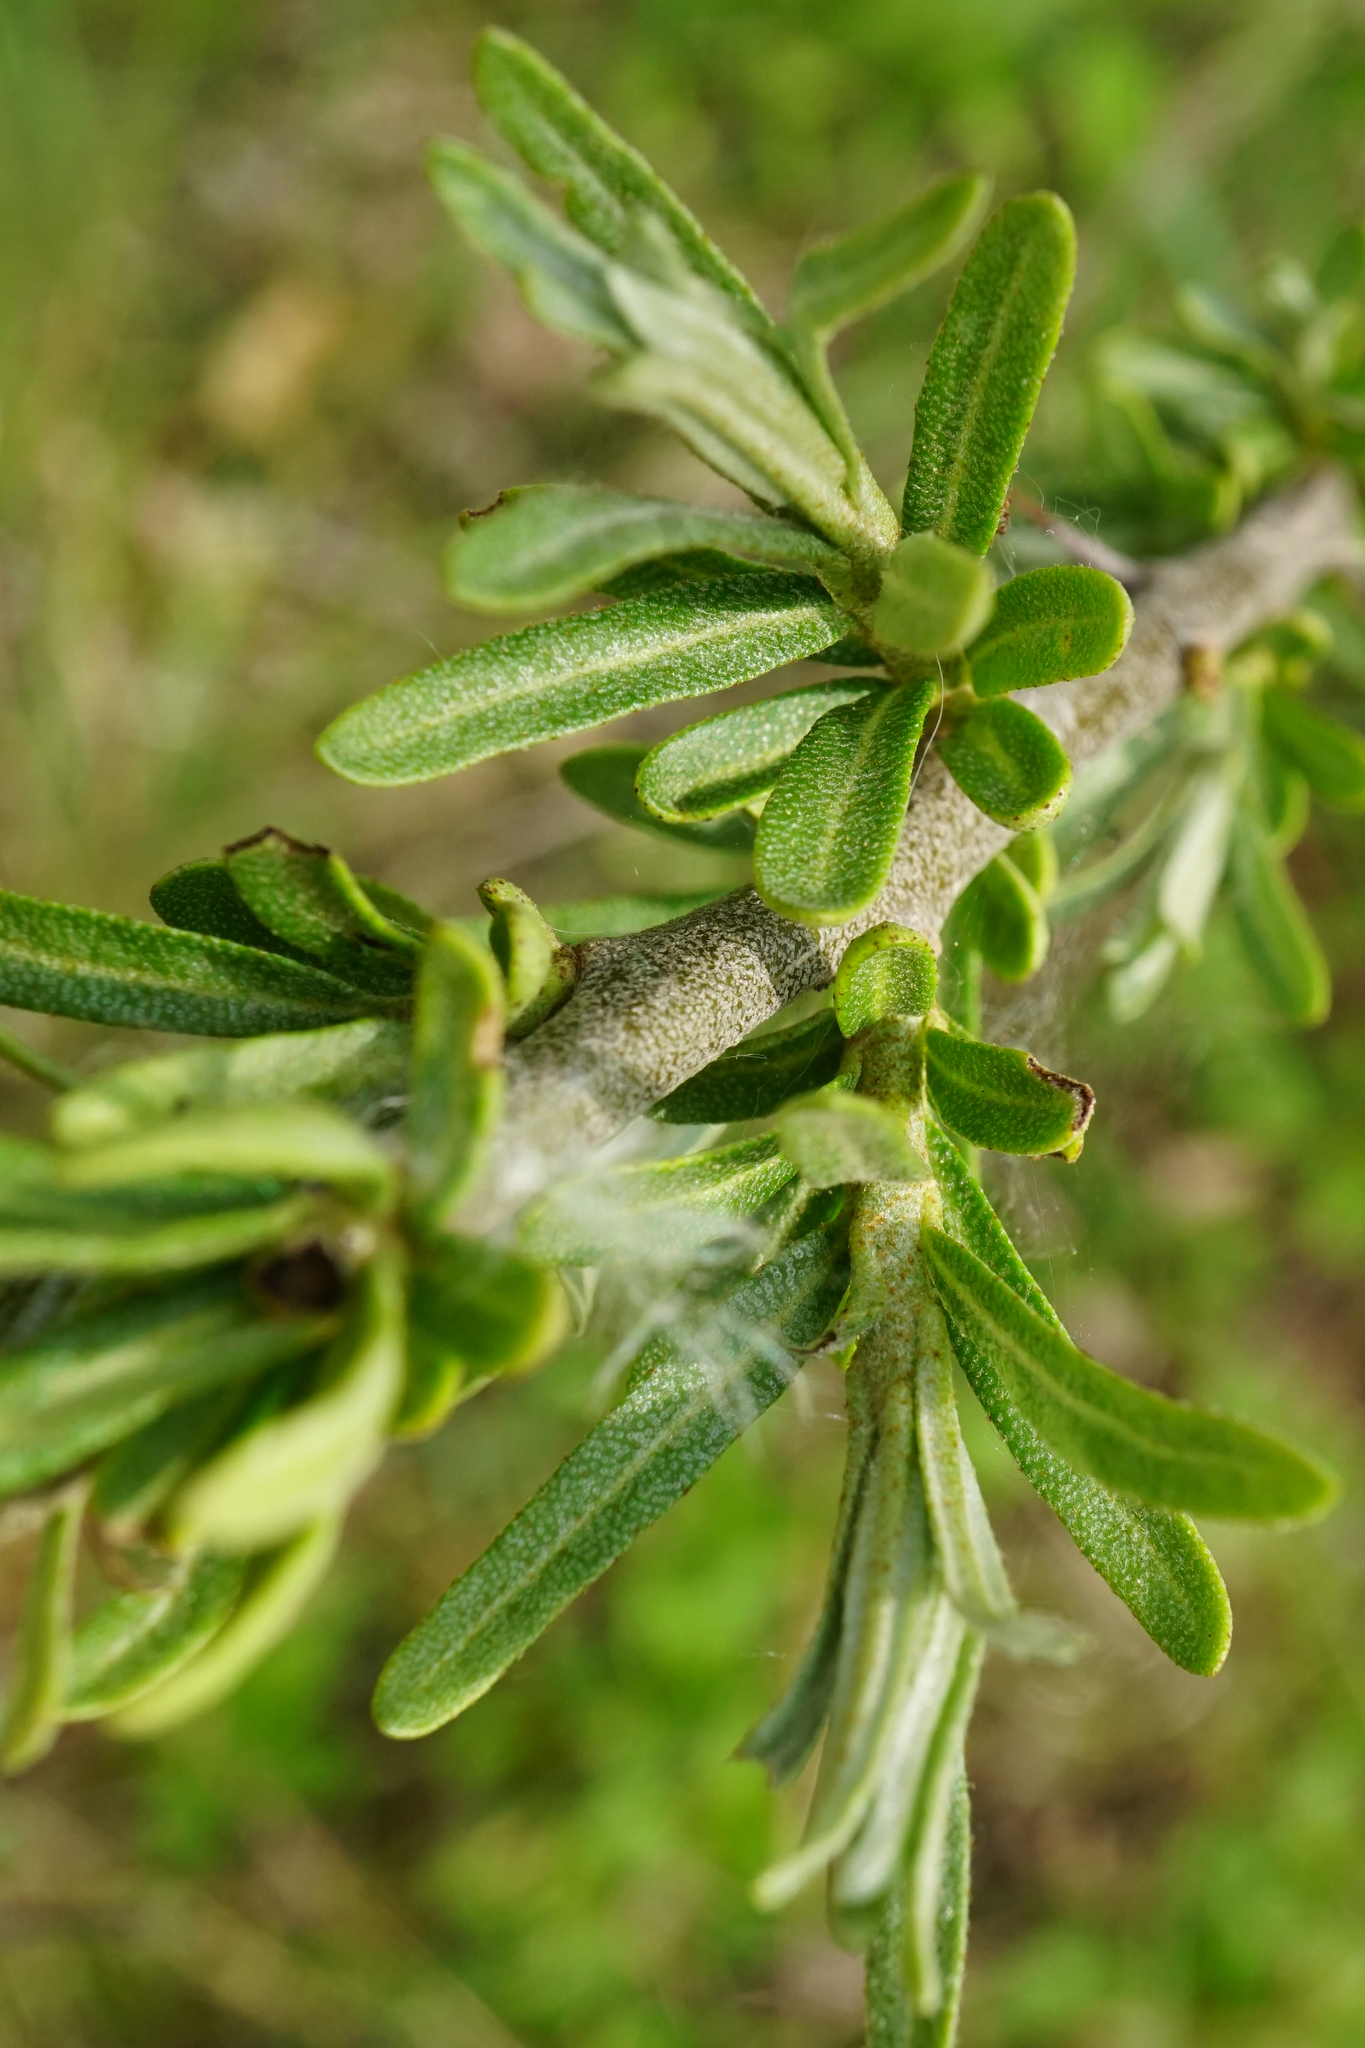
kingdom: Plantae
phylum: Tracheophyta
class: Magnoliopsida
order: Rosales
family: Elaeagnaceae
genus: Hippophae
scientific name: Hippophae rhamnoides
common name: Sea-buckthorn
